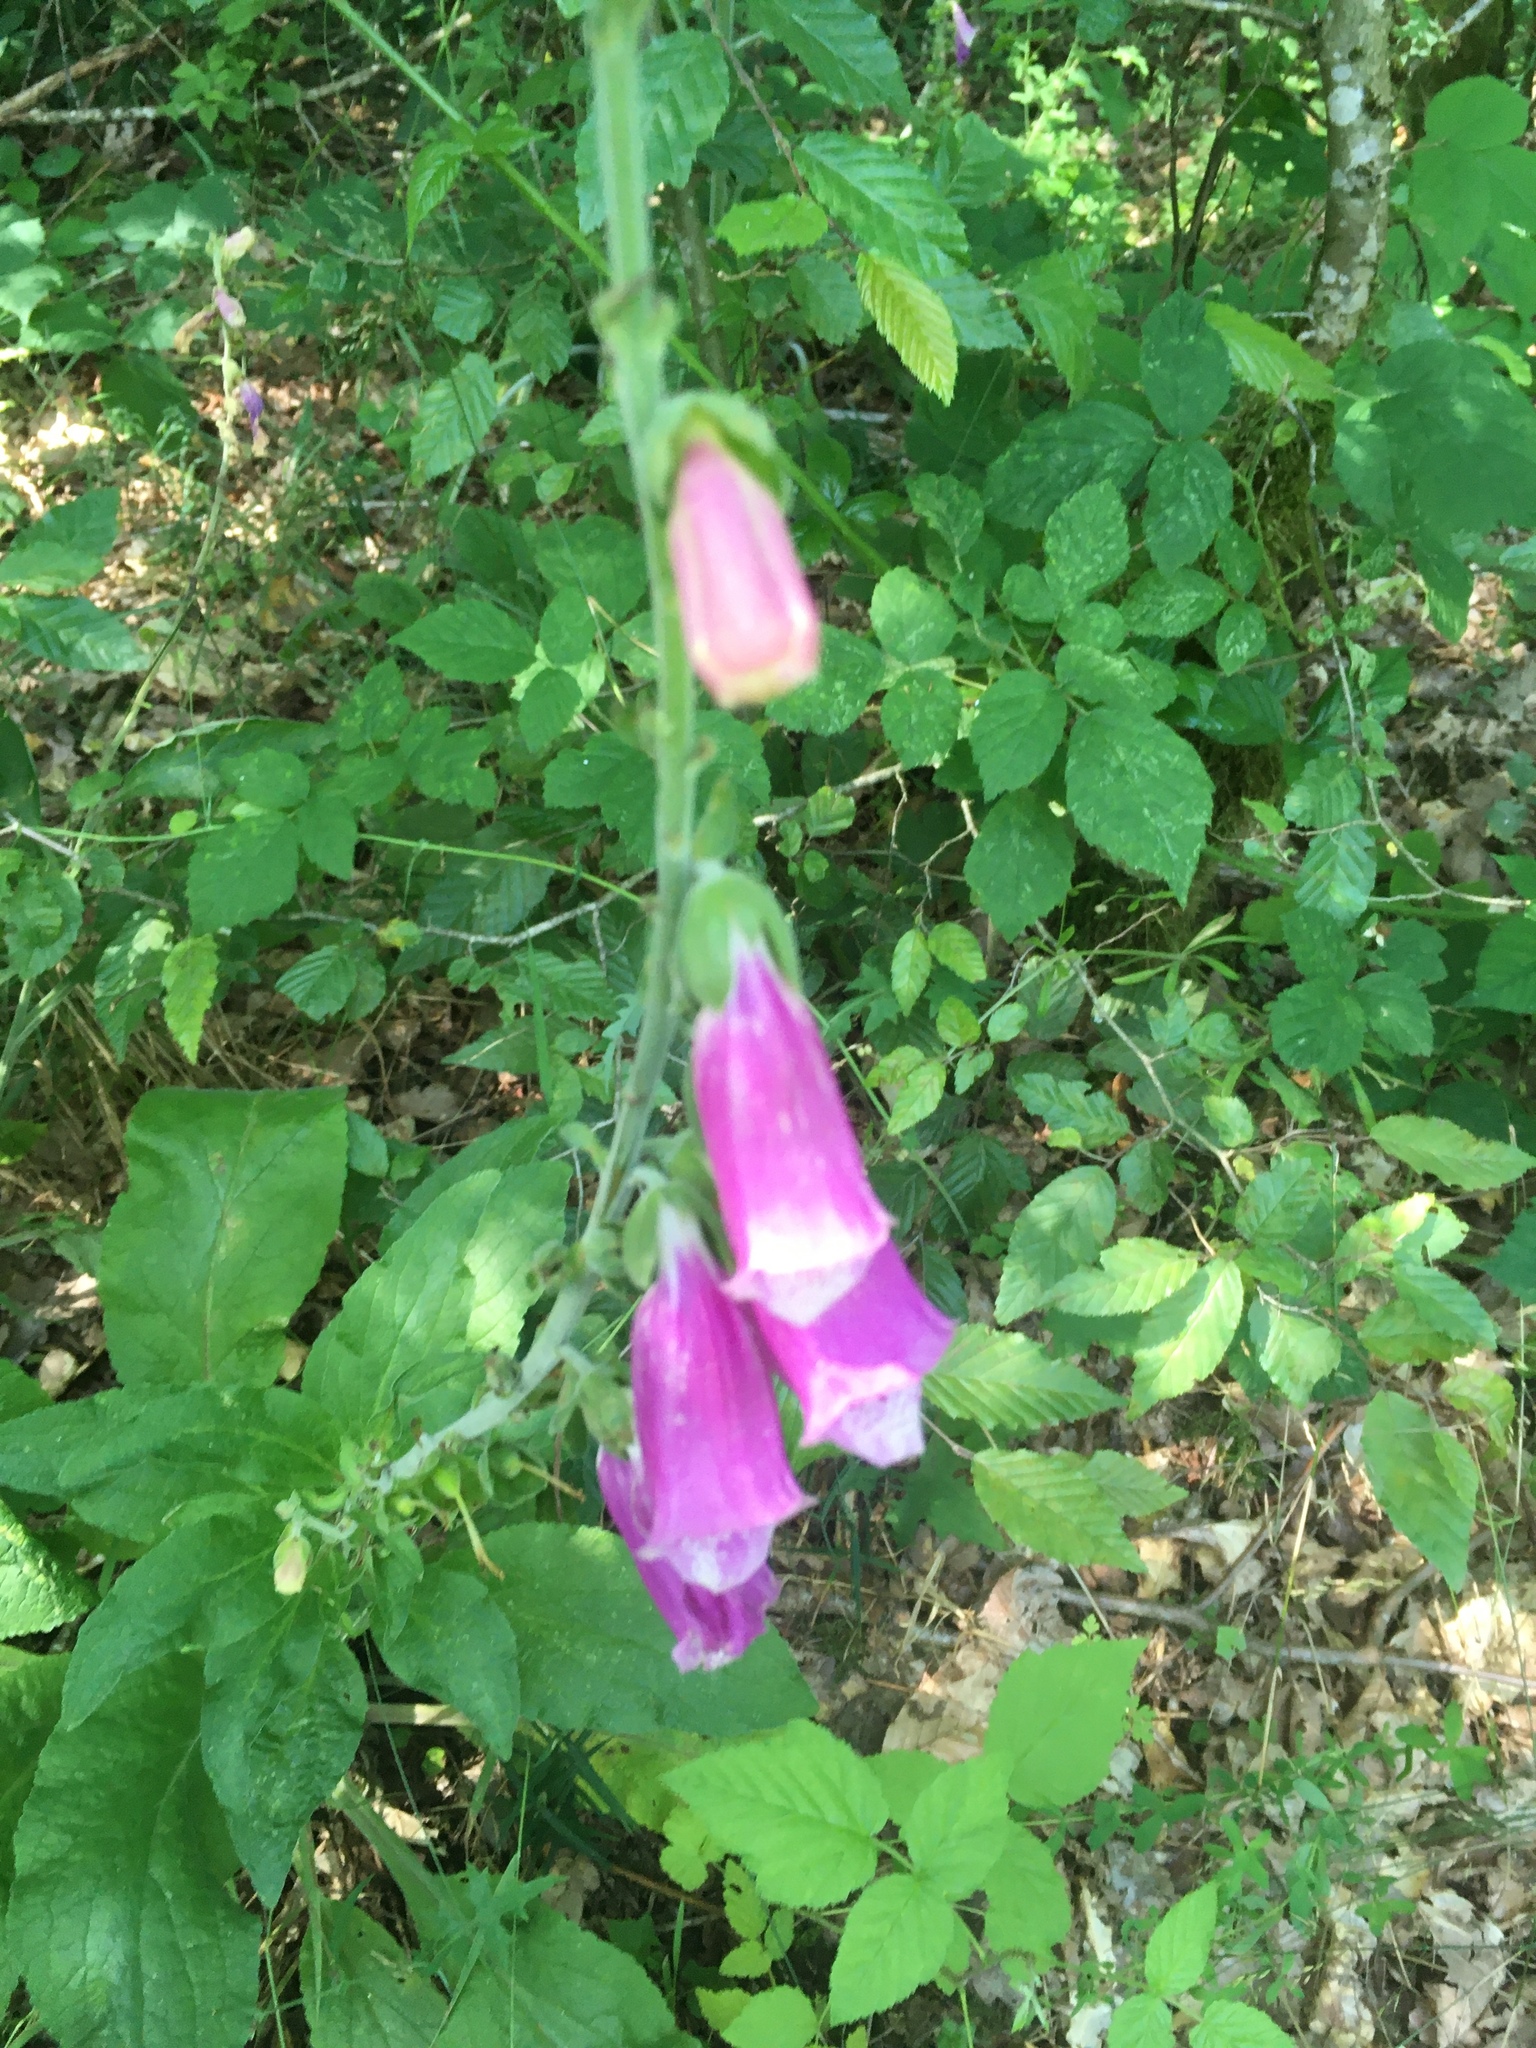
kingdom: Plantae
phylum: Tracheophyta
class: Magnoliopsida
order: Lamiales
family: Plantaginaceae
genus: Digitalis
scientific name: Digitalis purpurea
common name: Foxglove
